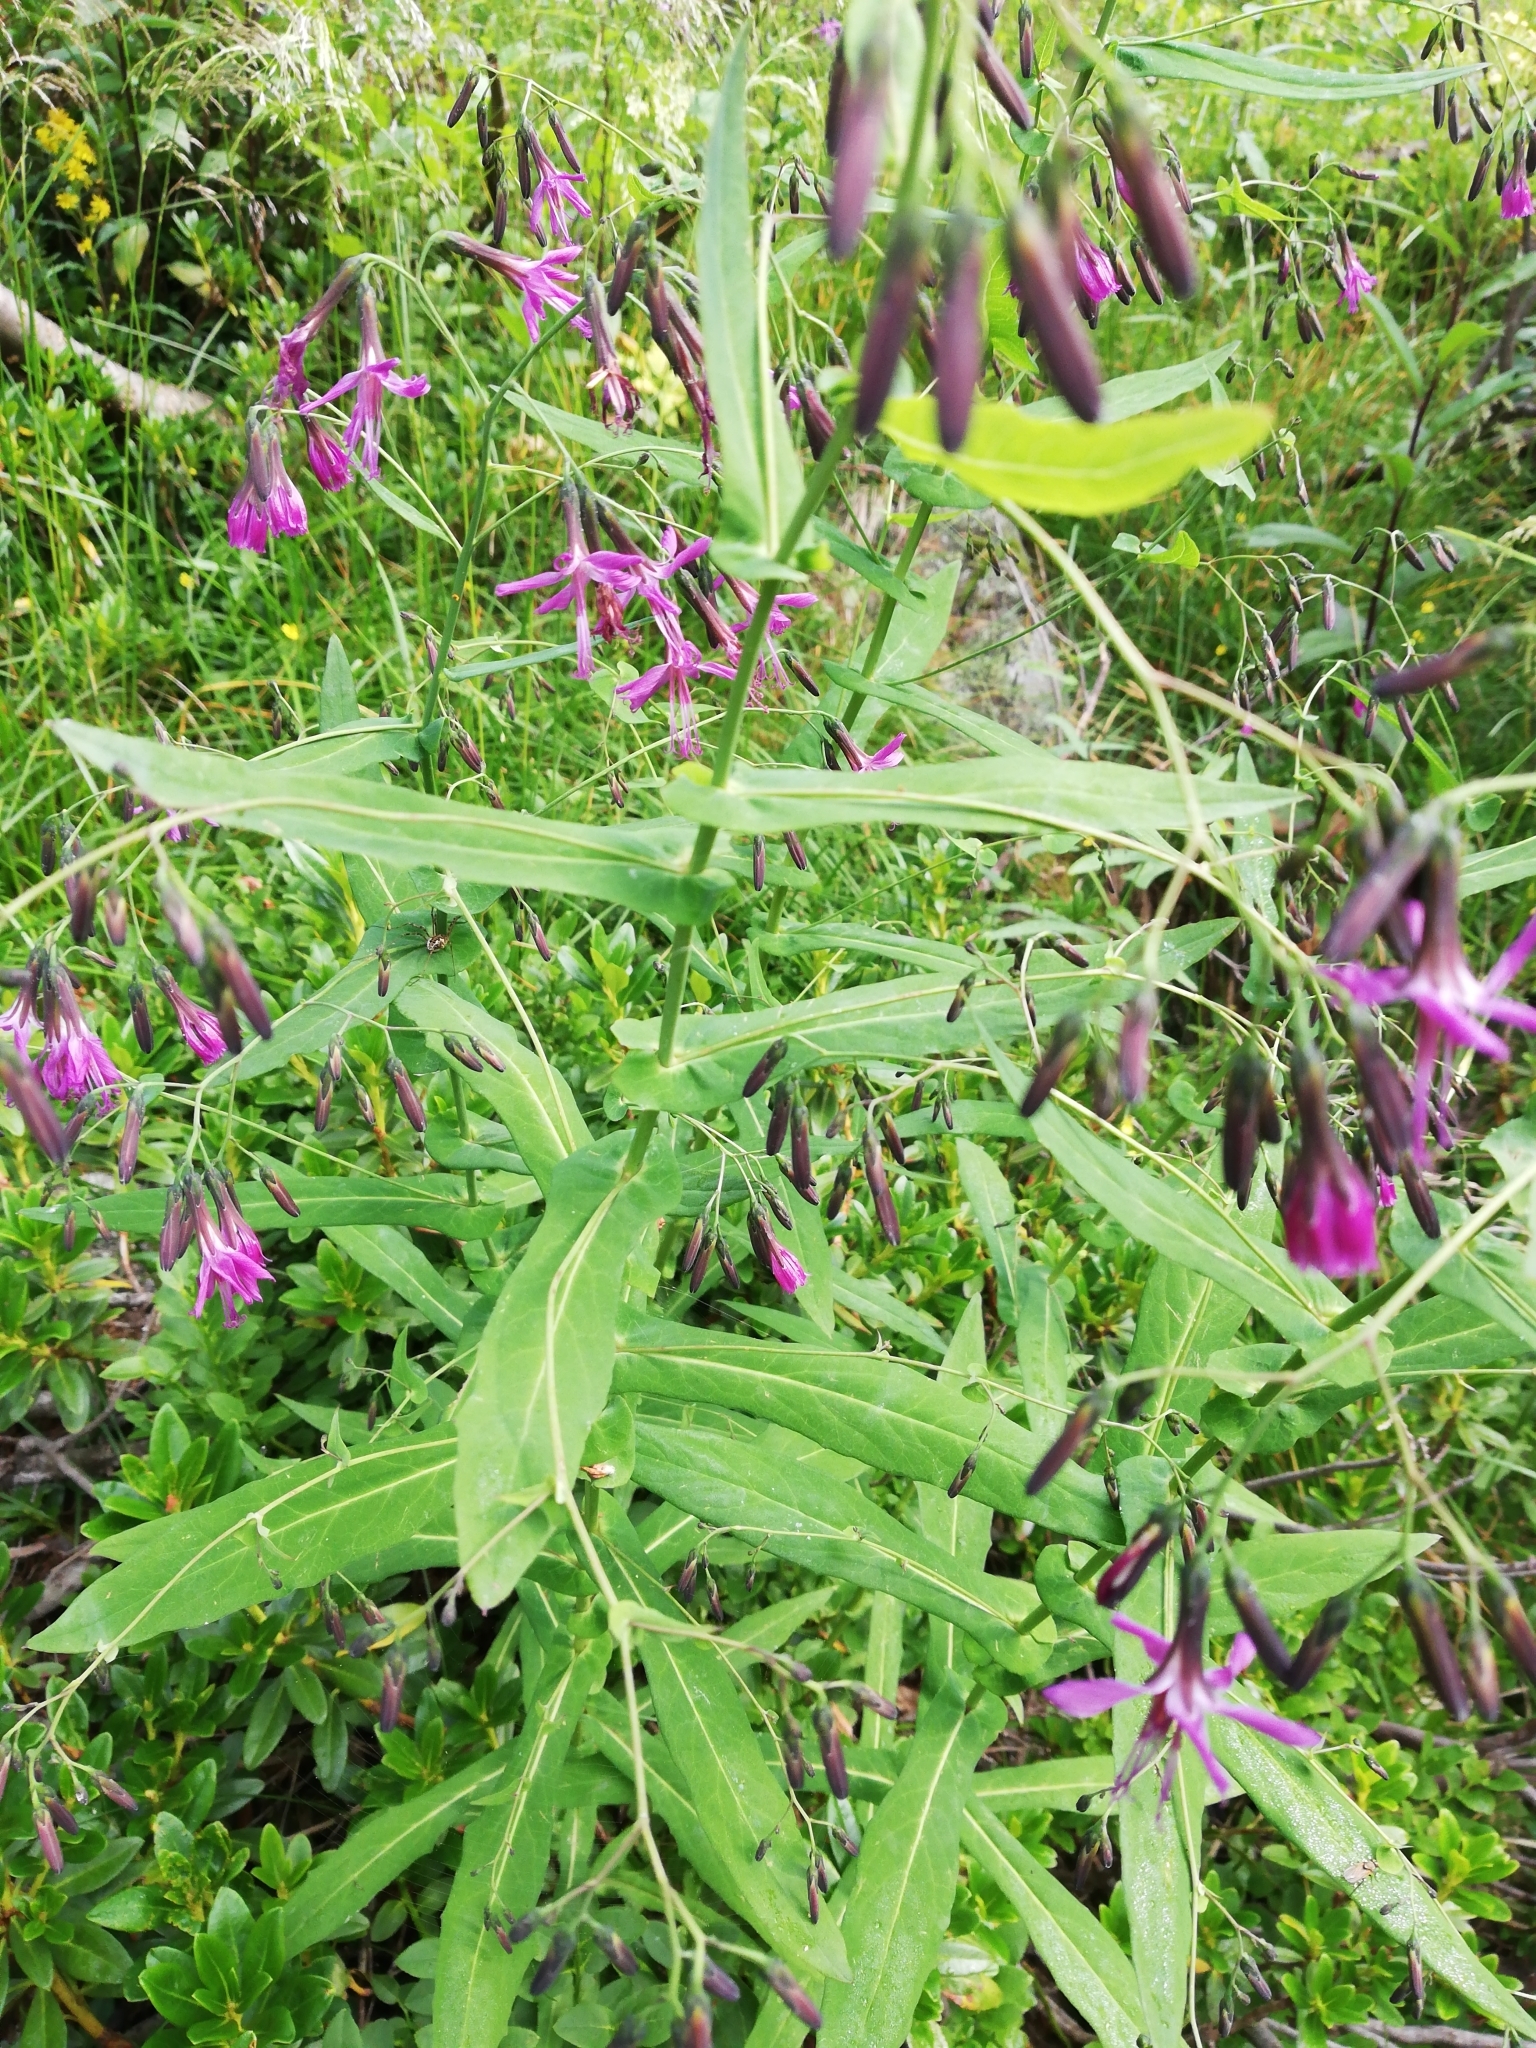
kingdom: Plantae
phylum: Tracheophyta
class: Magnoliopsida
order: Asterales
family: Asteraceae
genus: Prenanthes
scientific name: Prenanthes purpurea
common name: Purple lettuce
